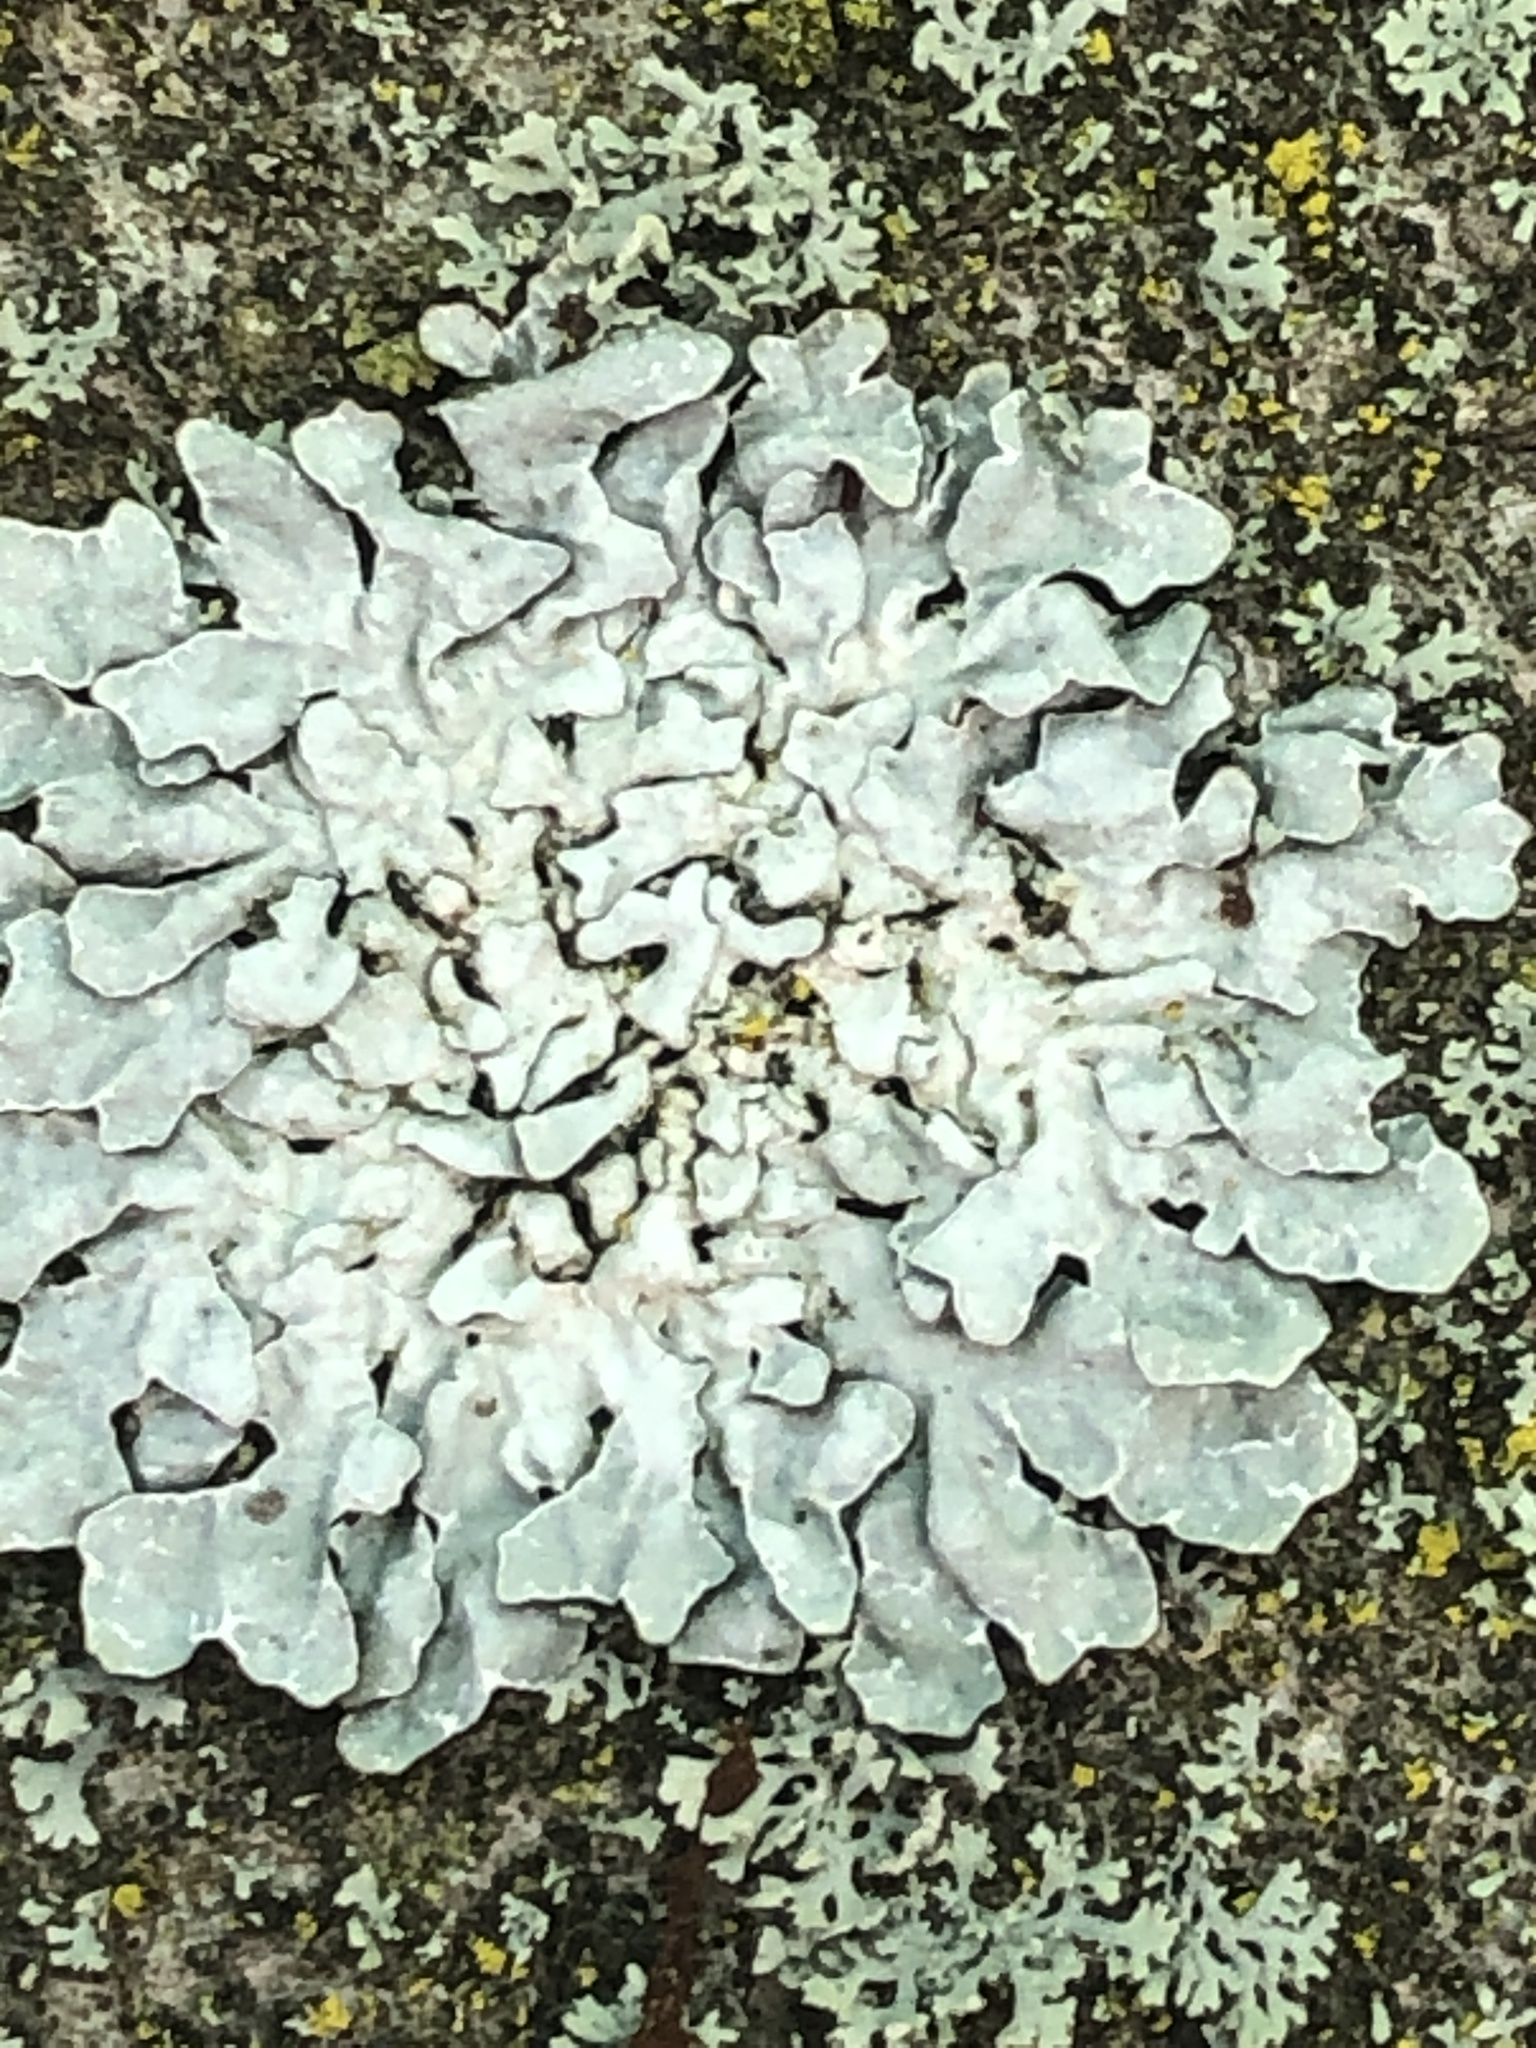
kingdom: Fungi
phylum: Ascomycota
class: Lecanoromycetes
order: Lecanorales
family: Parmeliaceae
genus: Parmelia
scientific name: Parmelia sulcata
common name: Netted shield lichen
